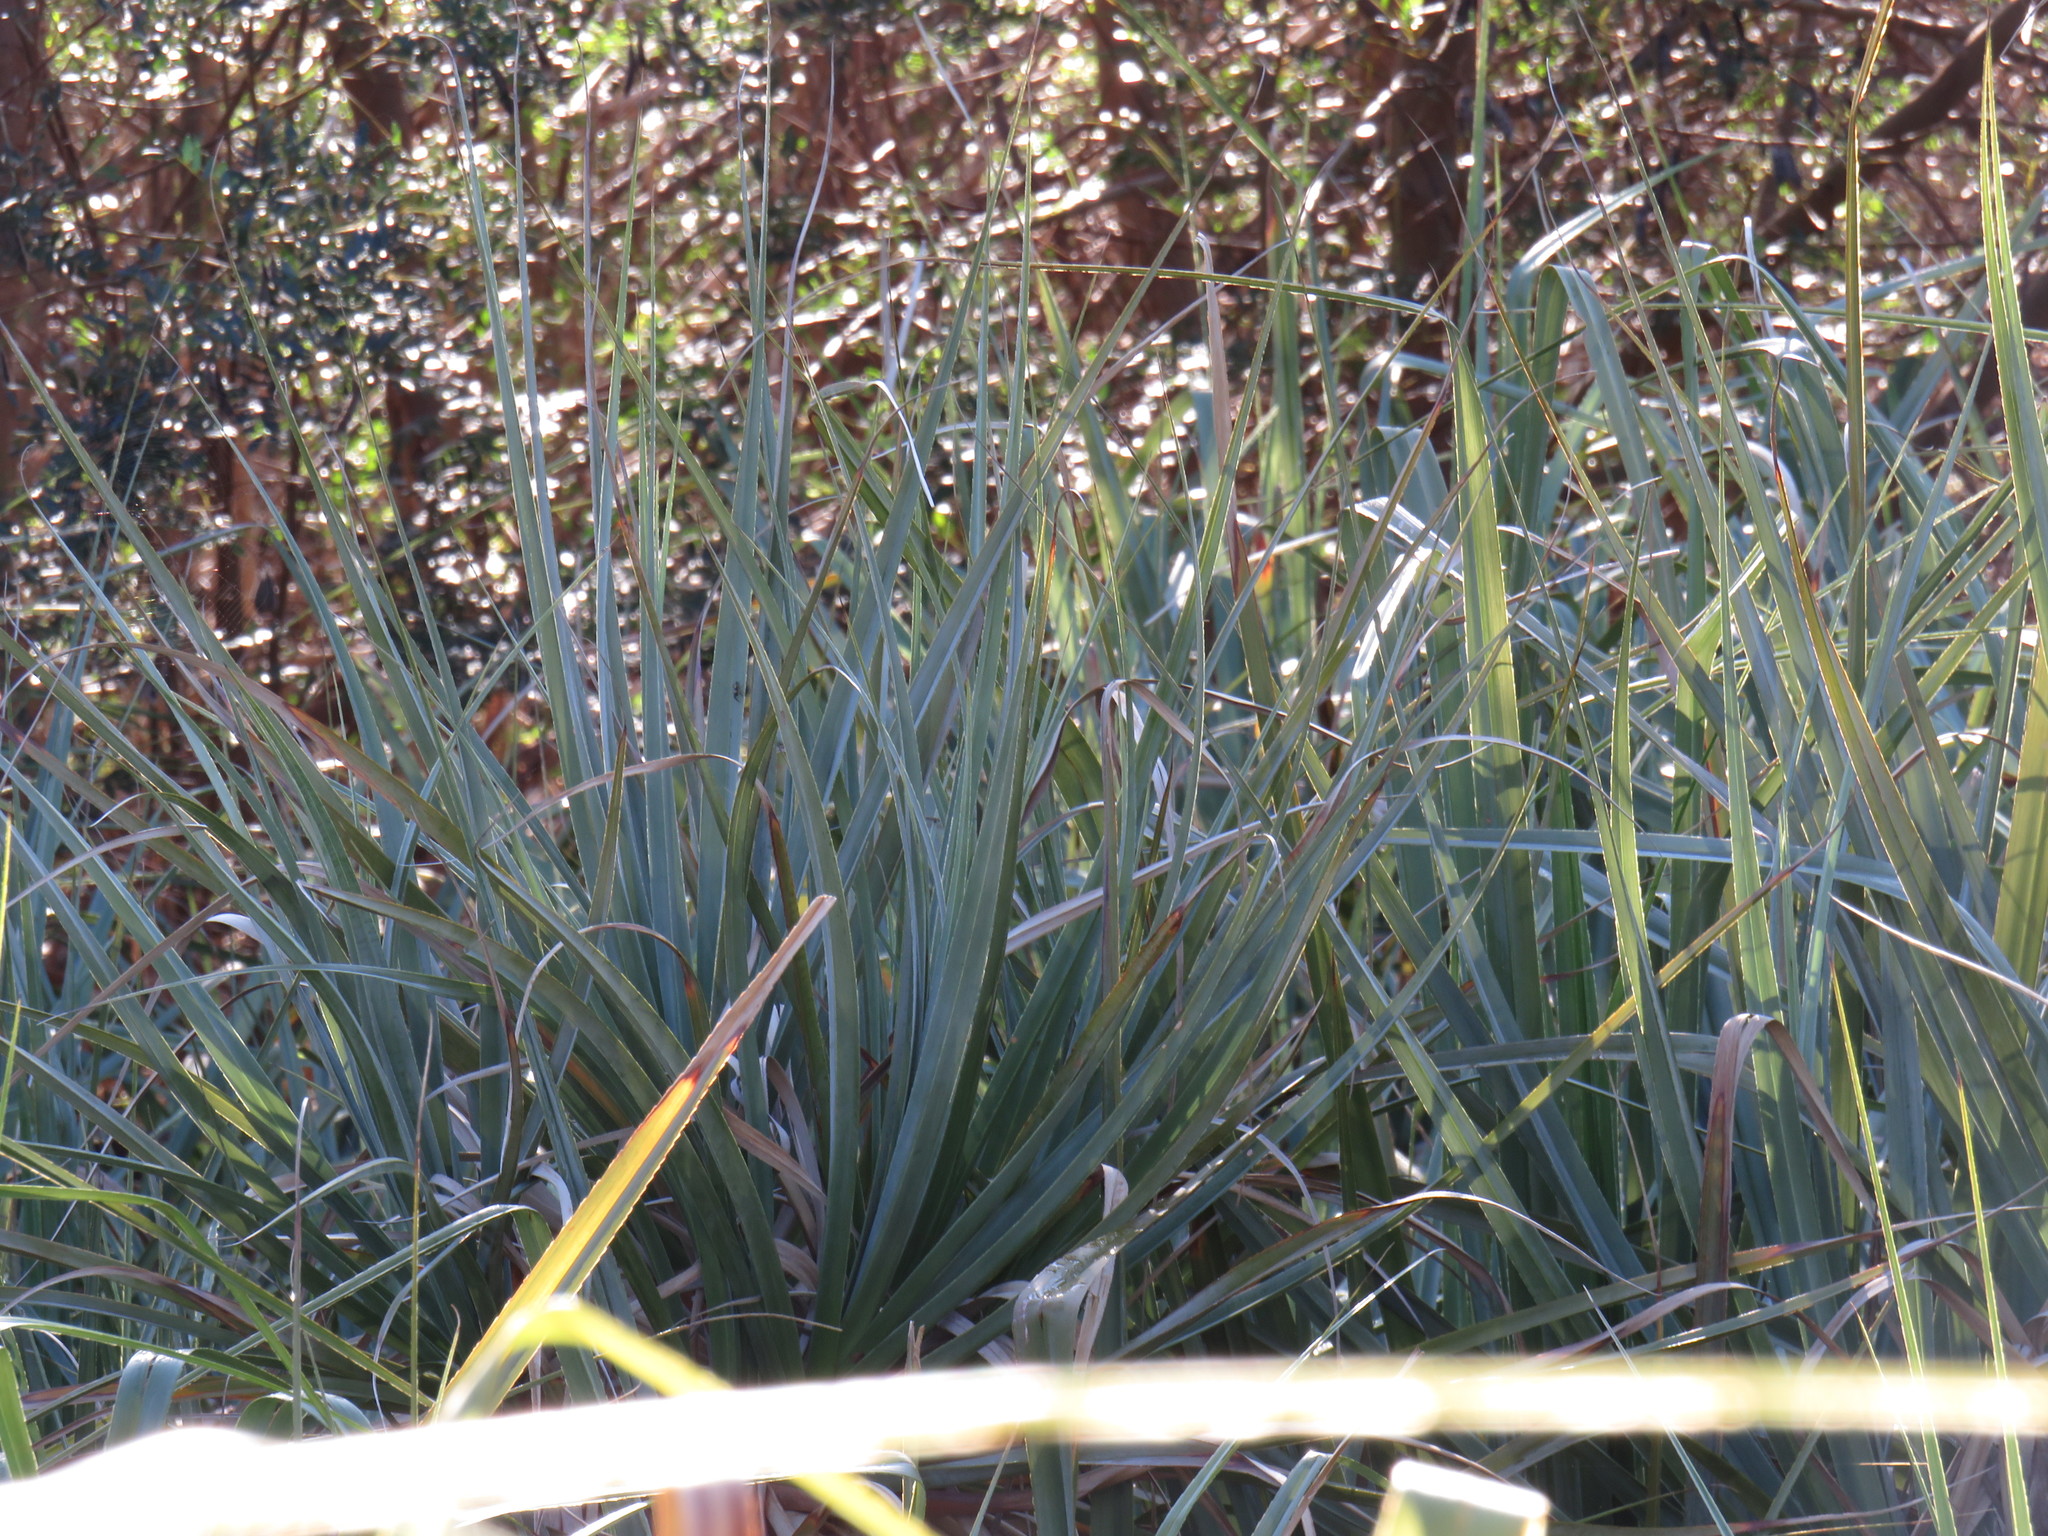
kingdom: Plantae
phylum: Tracheophyta
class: Liliopsida
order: Poales
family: Thurniaceae
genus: Prionium
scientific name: Prionium serratum
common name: Palmiet
